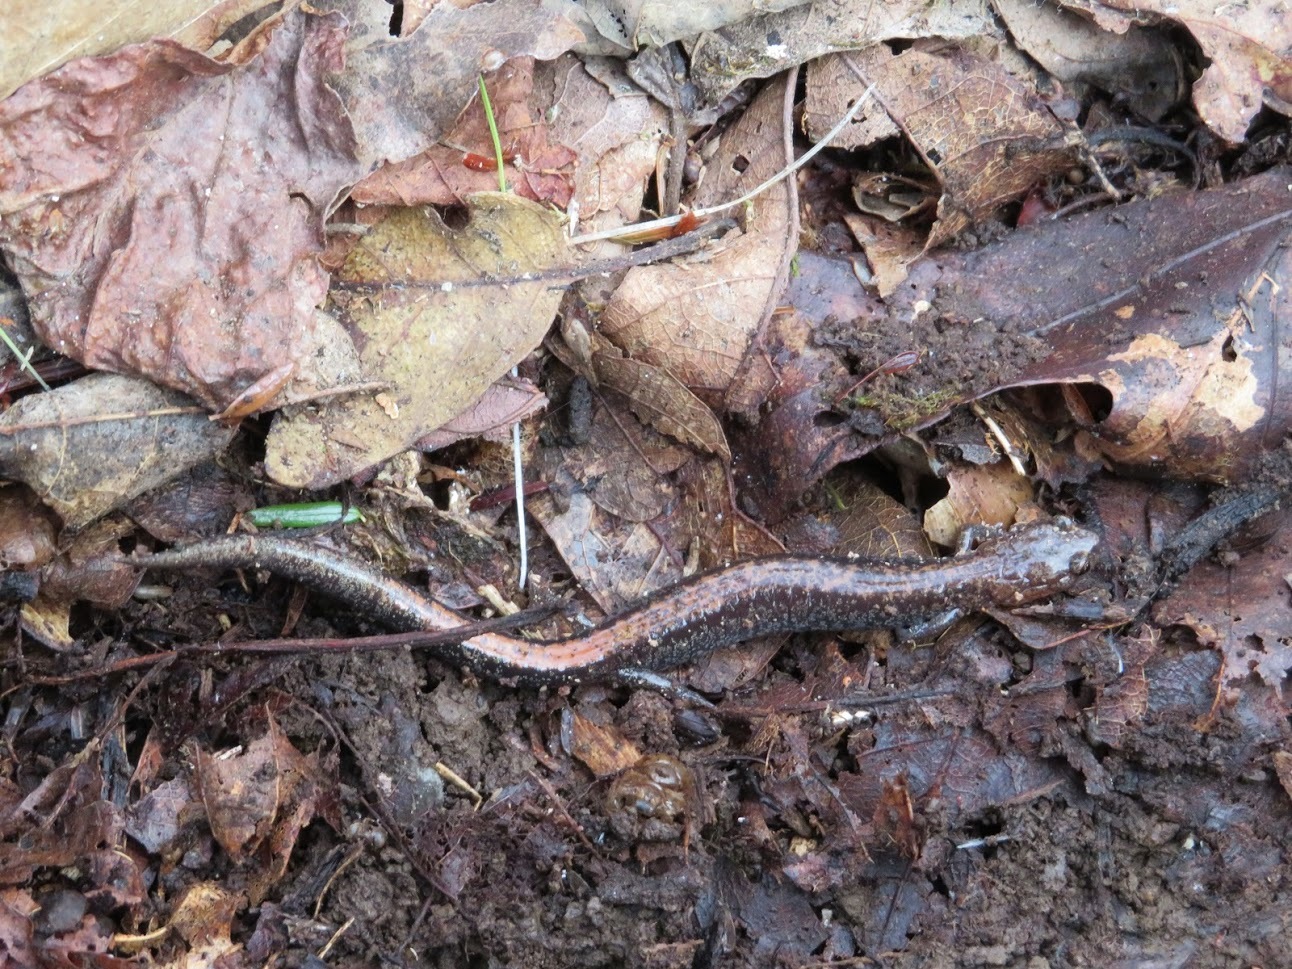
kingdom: Animalia
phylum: Chordata
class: Amphibia
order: Caudata
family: Plethodontidae
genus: Plethodon
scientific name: Plethodon cinereus
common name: Redback salamander
